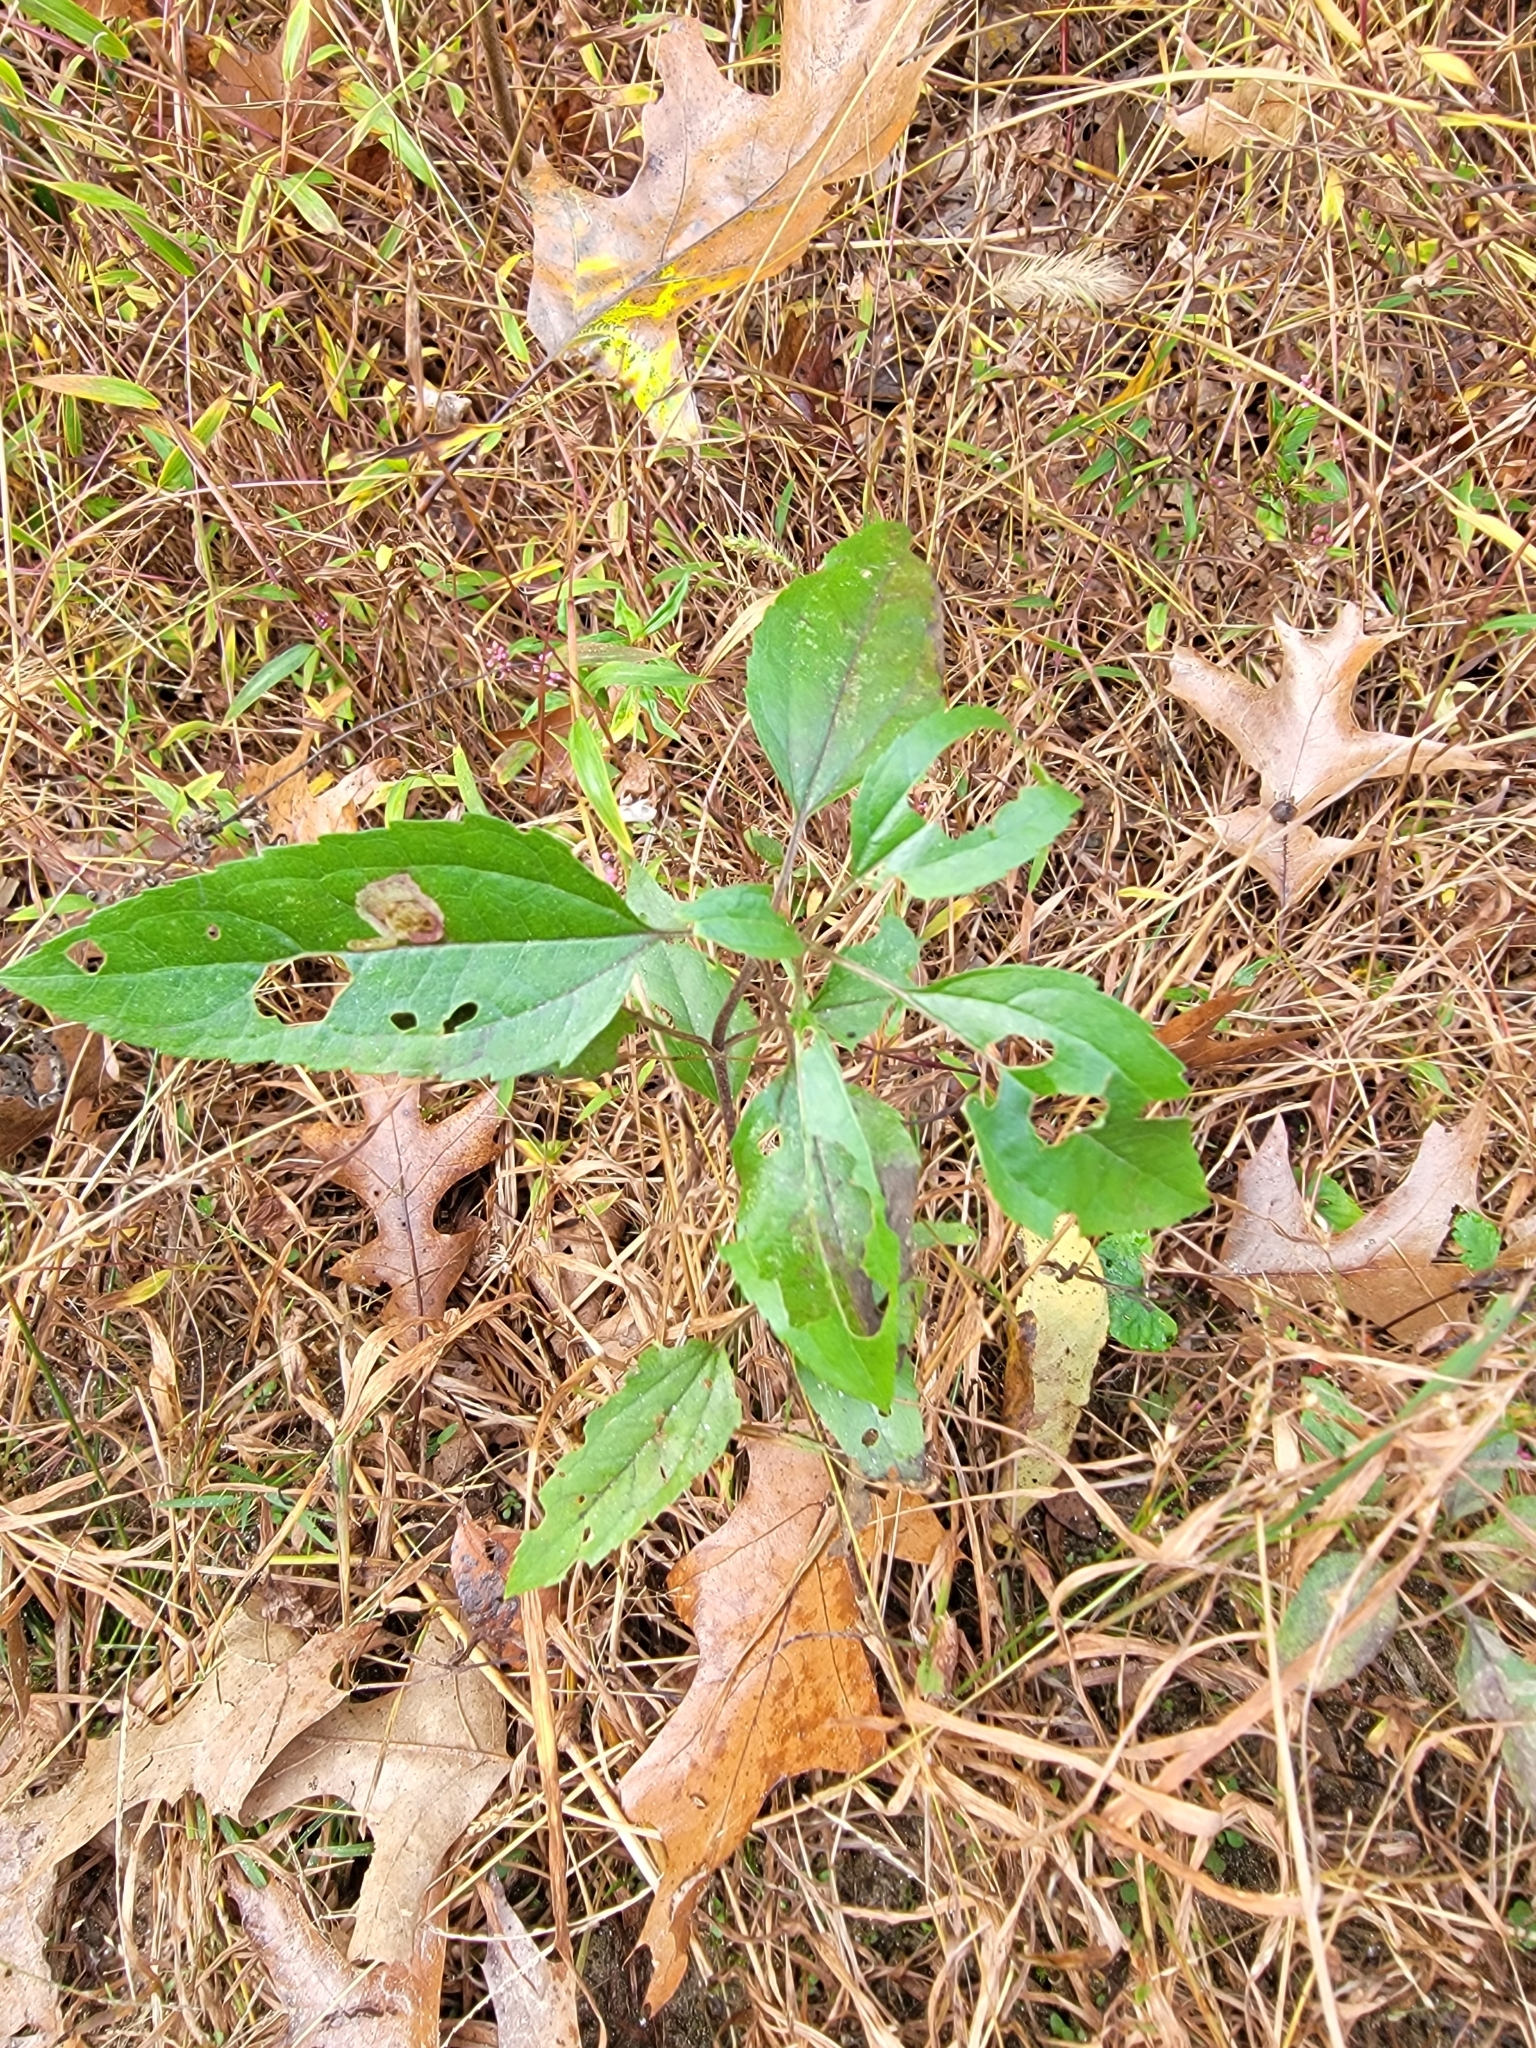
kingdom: Plantae
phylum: Tracheophyta
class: Magnoliopsida
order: Asterales
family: Asteraceae
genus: Eupatorium
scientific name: Eupatorium serotinum
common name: Late boneset
